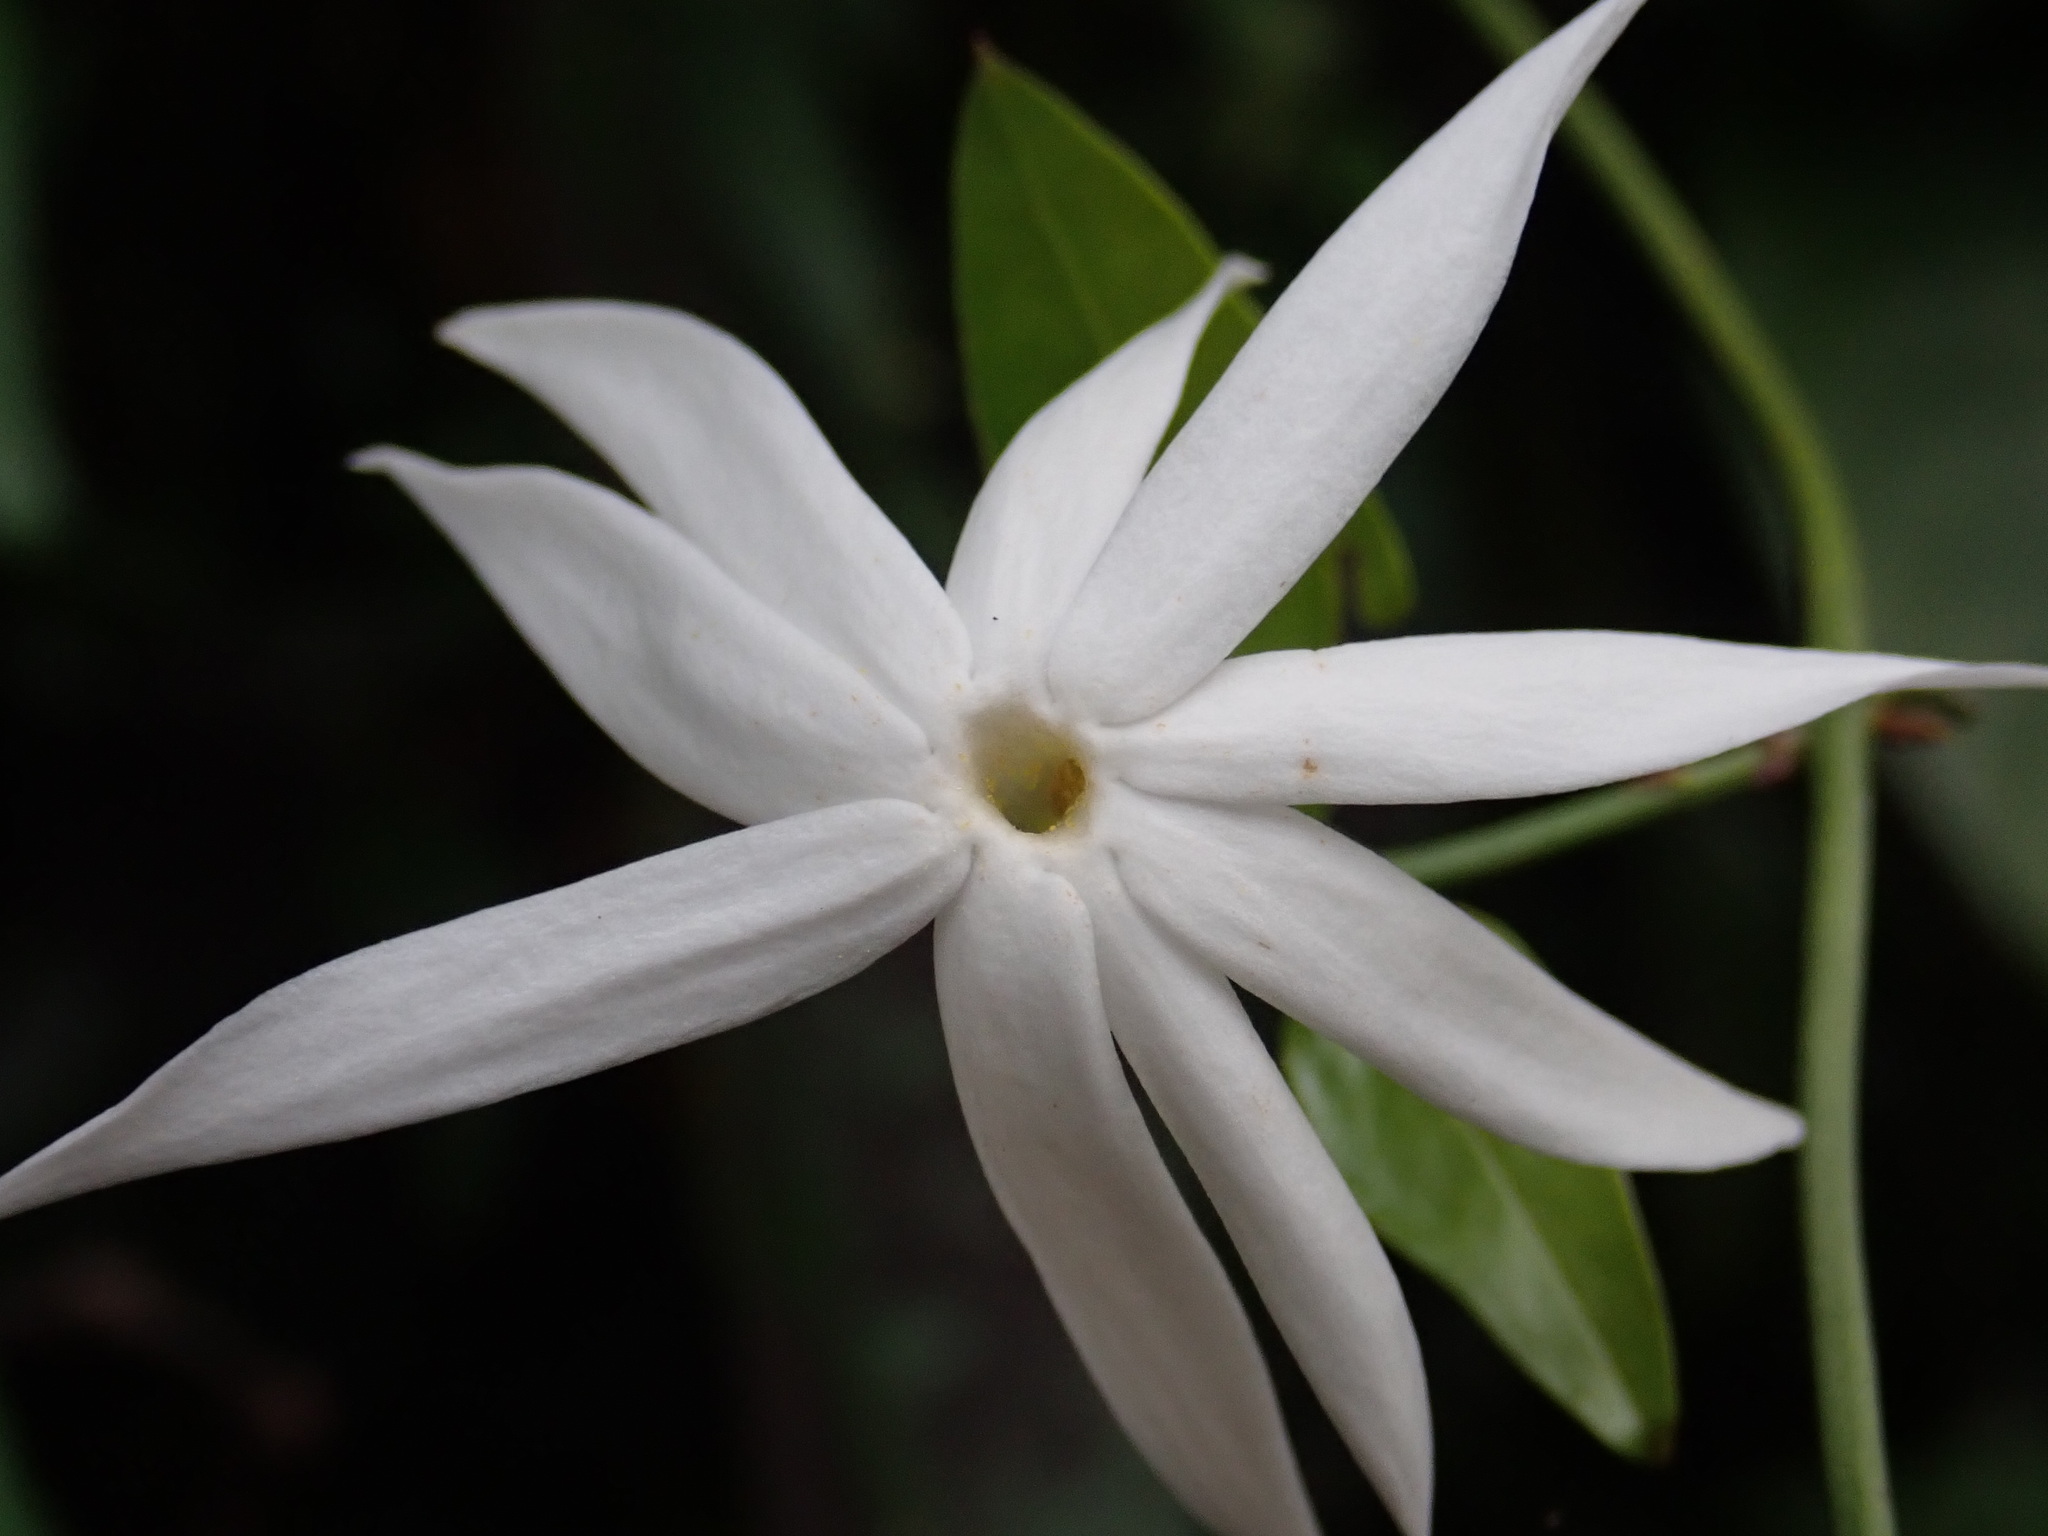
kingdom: Plantae
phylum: Tracheophyta
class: Magnoliopsida
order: Lamiales
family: Oleaceae
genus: Jasminum
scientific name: Jasminum nervosum
